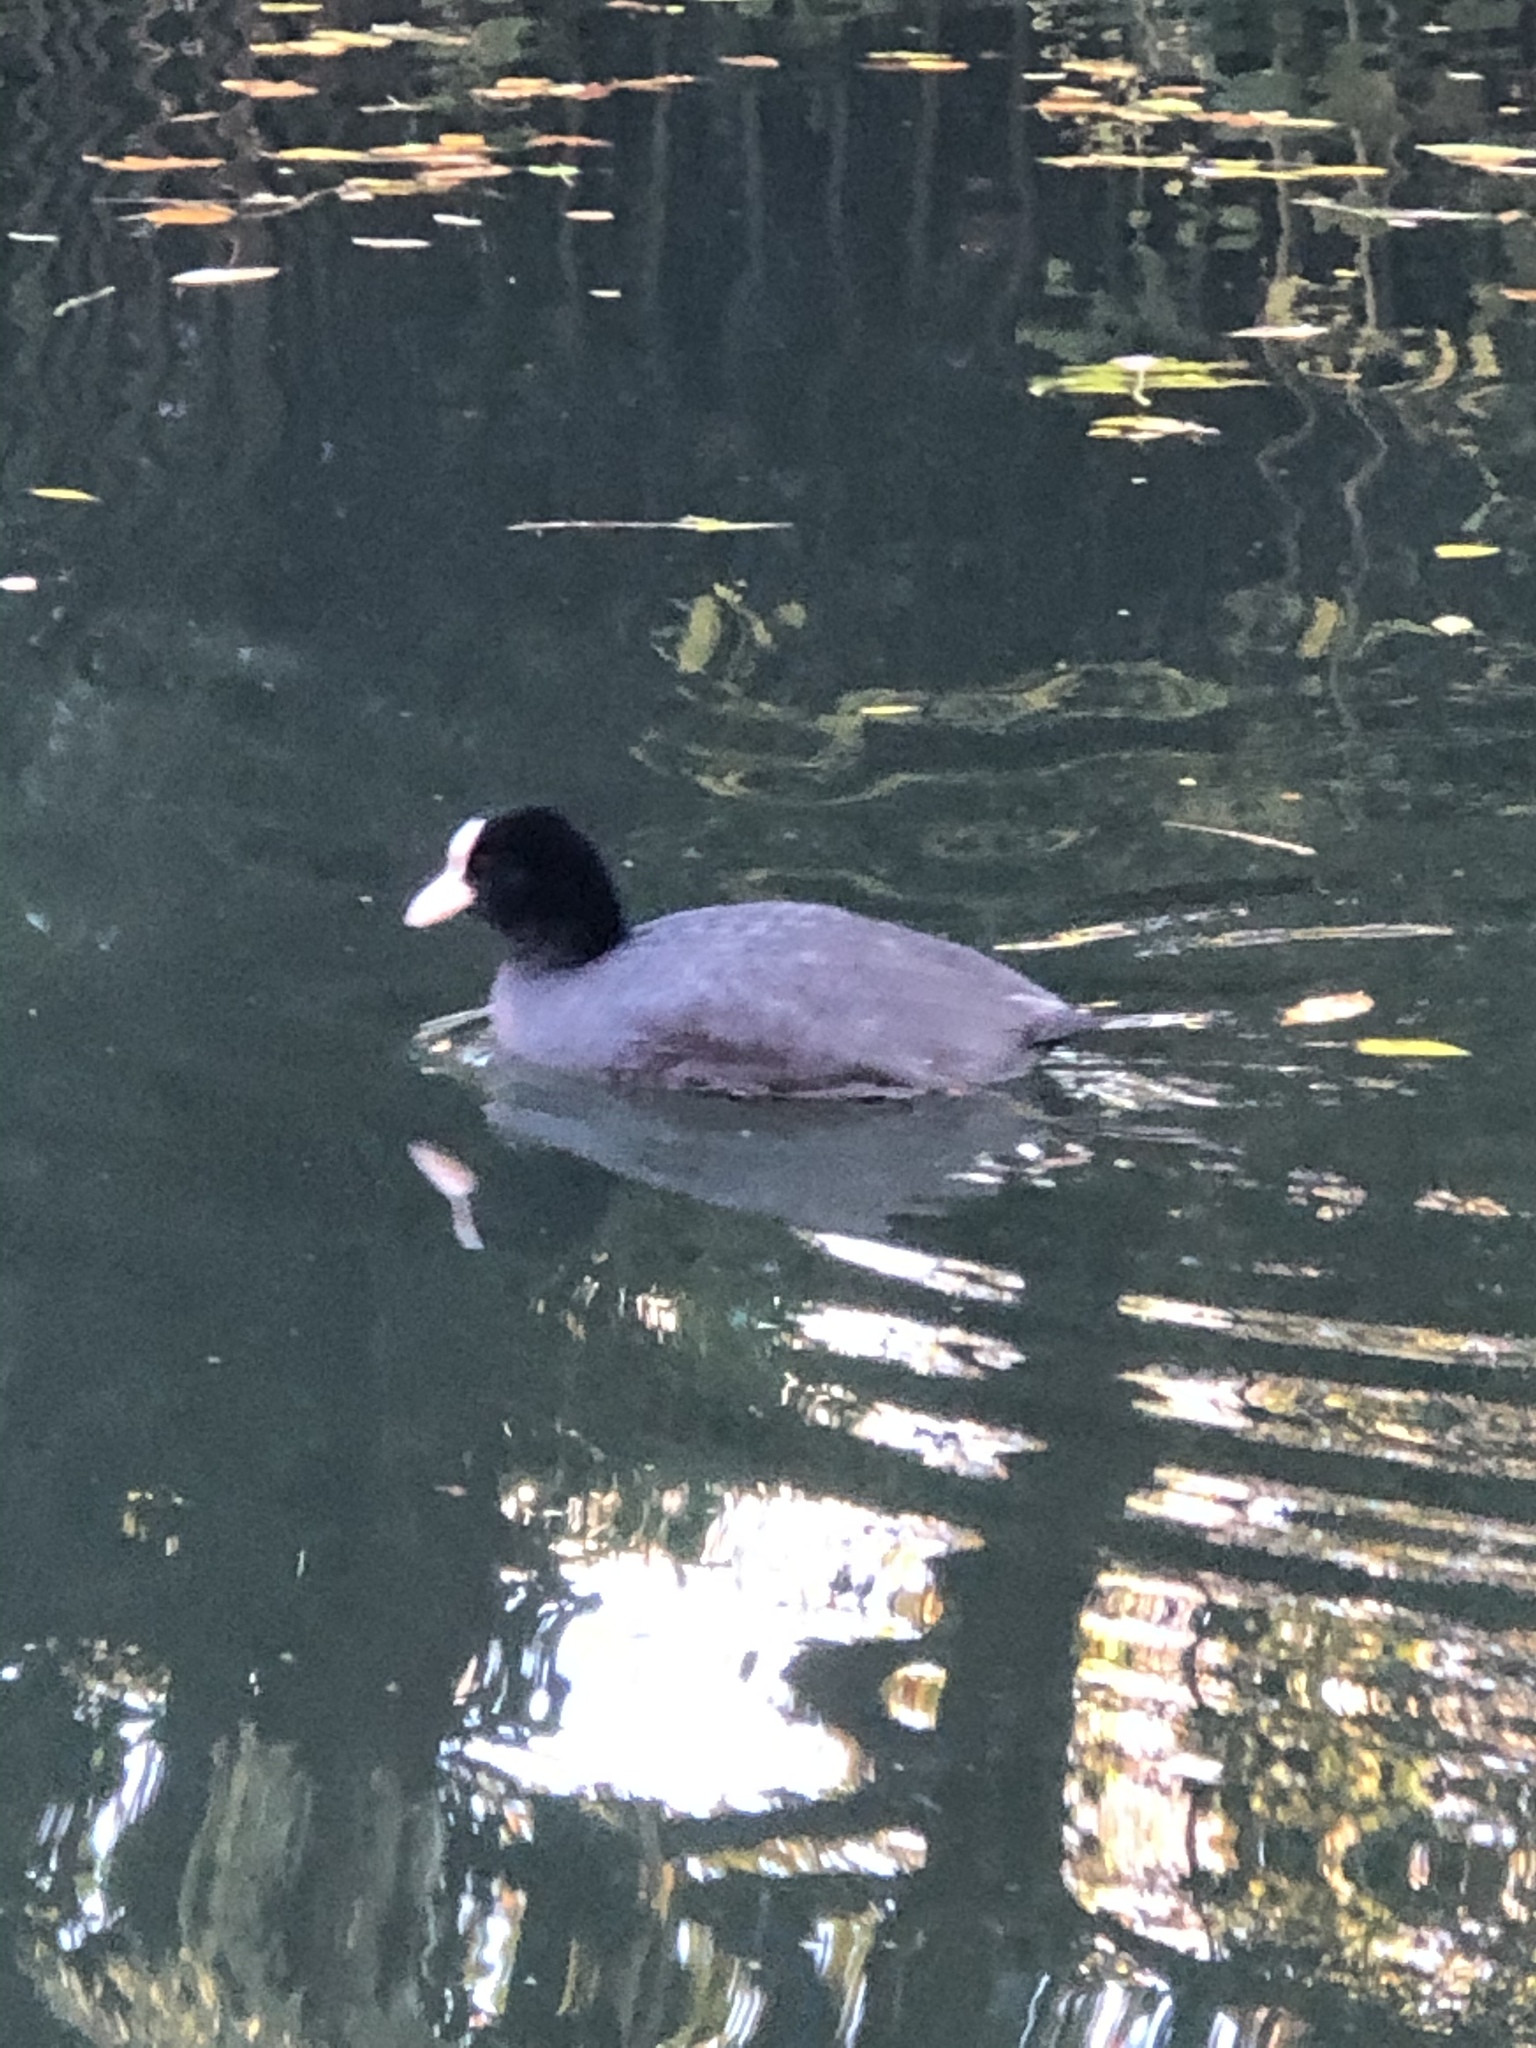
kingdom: Animalia
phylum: Chordata
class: Aves
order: Gruiformes
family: Rallidae
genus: Fulica
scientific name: Fulica atra
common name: Eurasian coot
